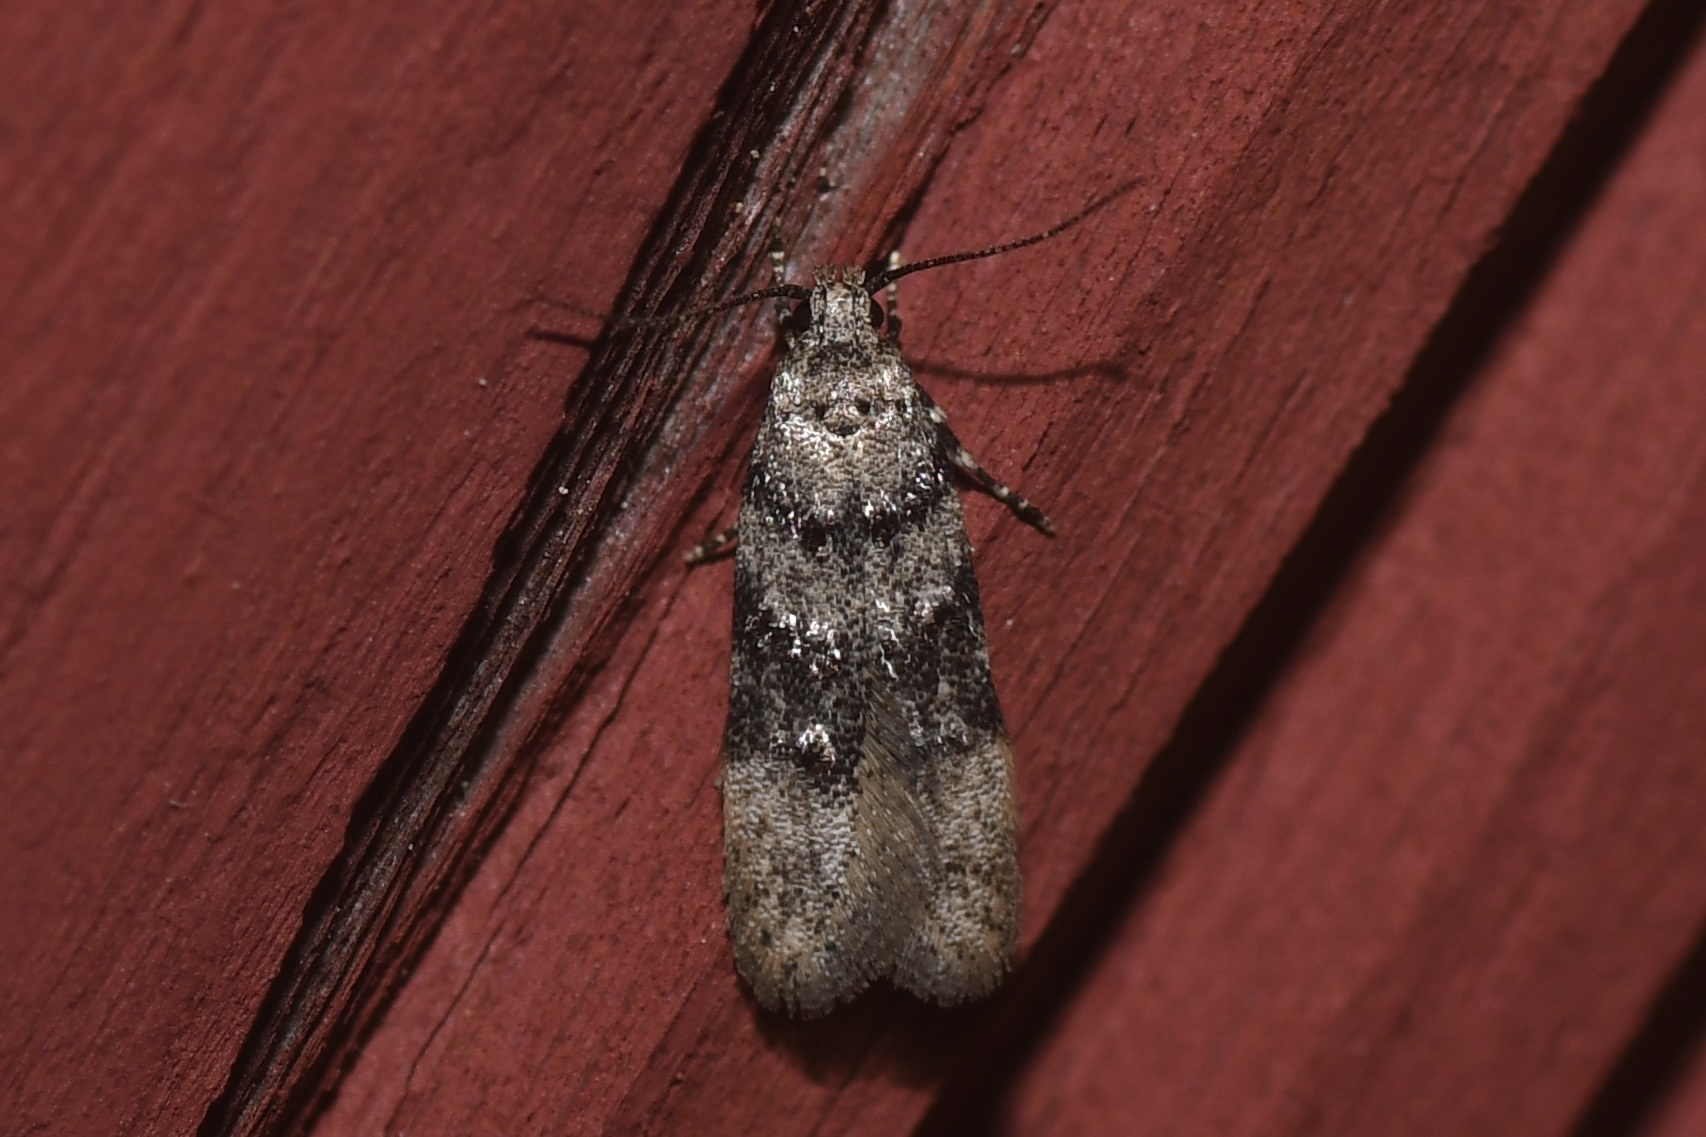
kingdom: Plantae
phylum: Tracheophyta
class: Pinopsida
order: Pinales
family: Pinaceae
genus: Arcutelphusa
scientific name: Arcutelphusa talladega
